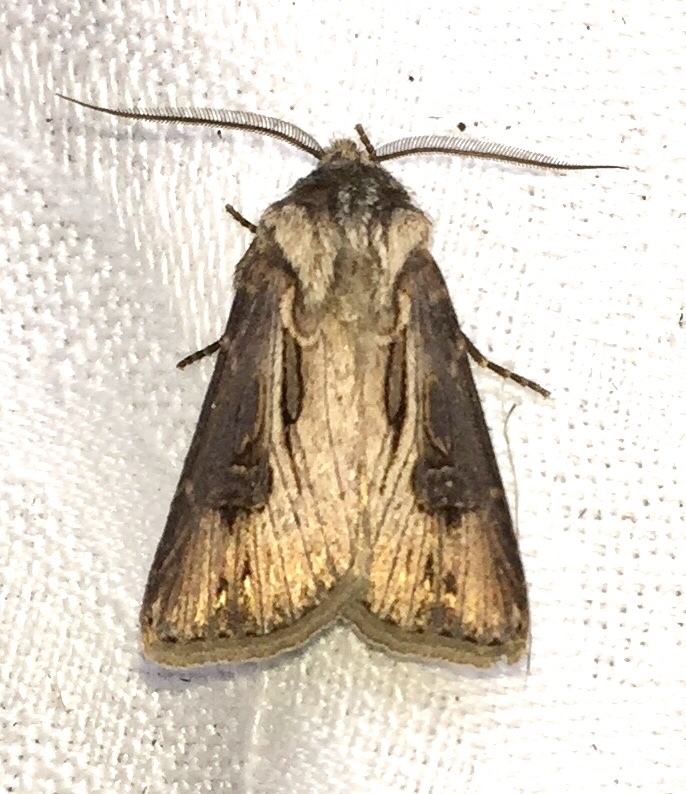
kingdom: Animalia
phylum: Arthropoda
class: Insecta
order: Lepidoptera
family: Noctuidae
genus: Agrotis
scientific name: Agrotis venerabilis
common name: Venerable dart
